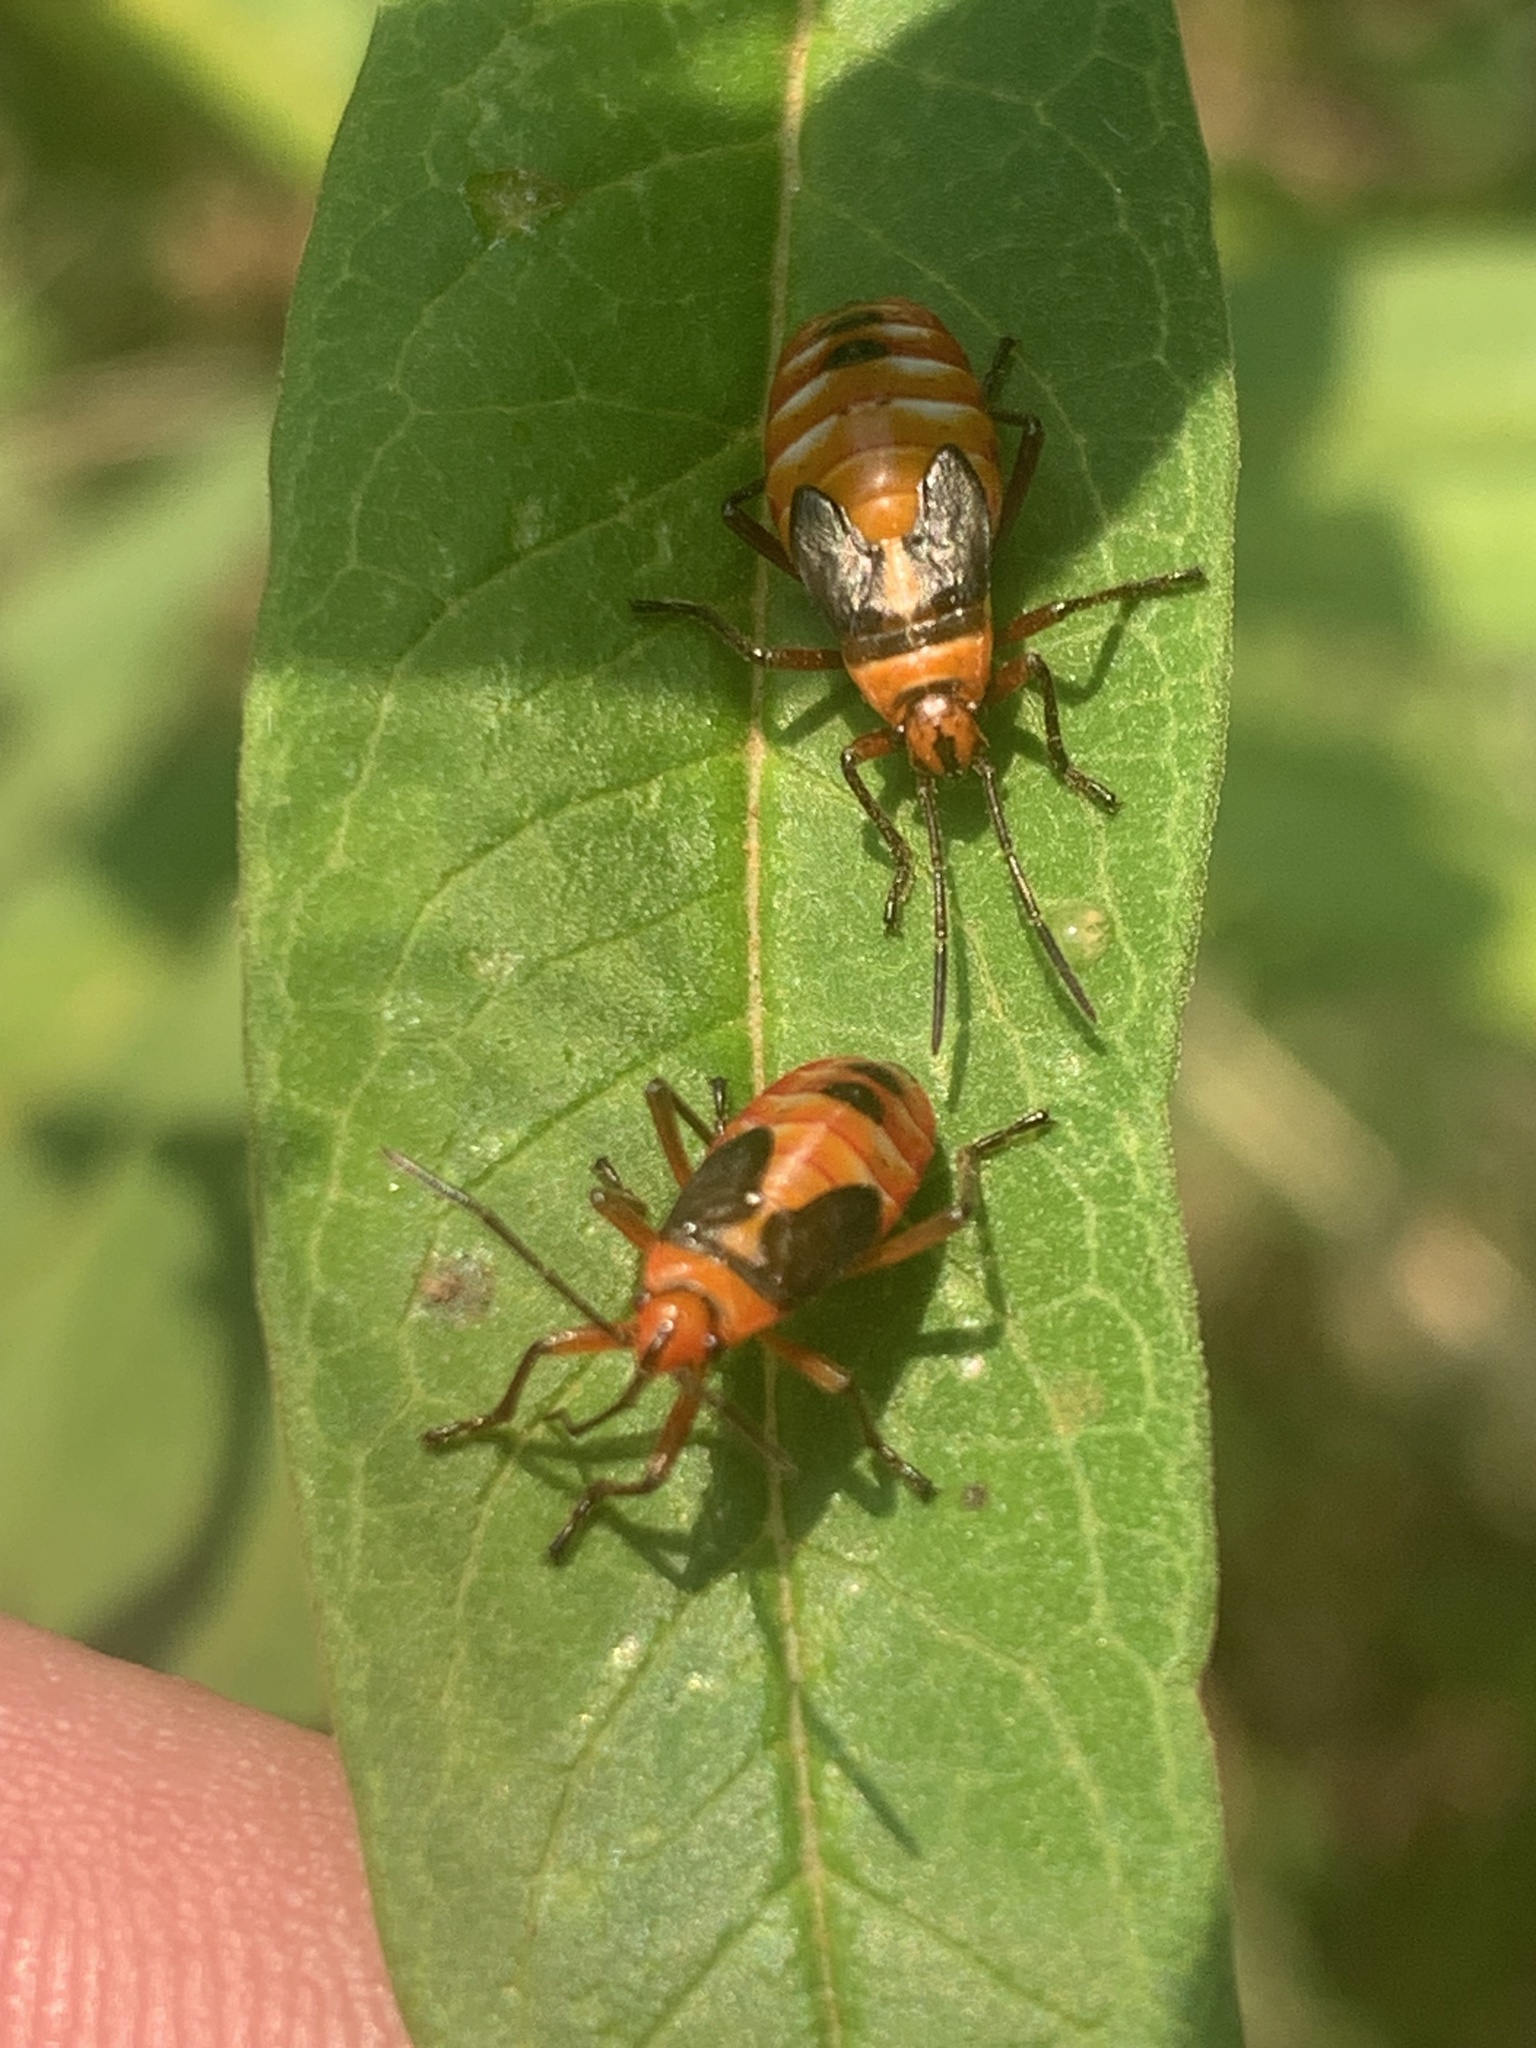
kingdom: Animalia
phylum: Arthropoda
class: Insecta
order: Hemiptera
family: Lygaeidae
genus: Oncopeltus
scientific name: Oncopeltus unifasciatellus
